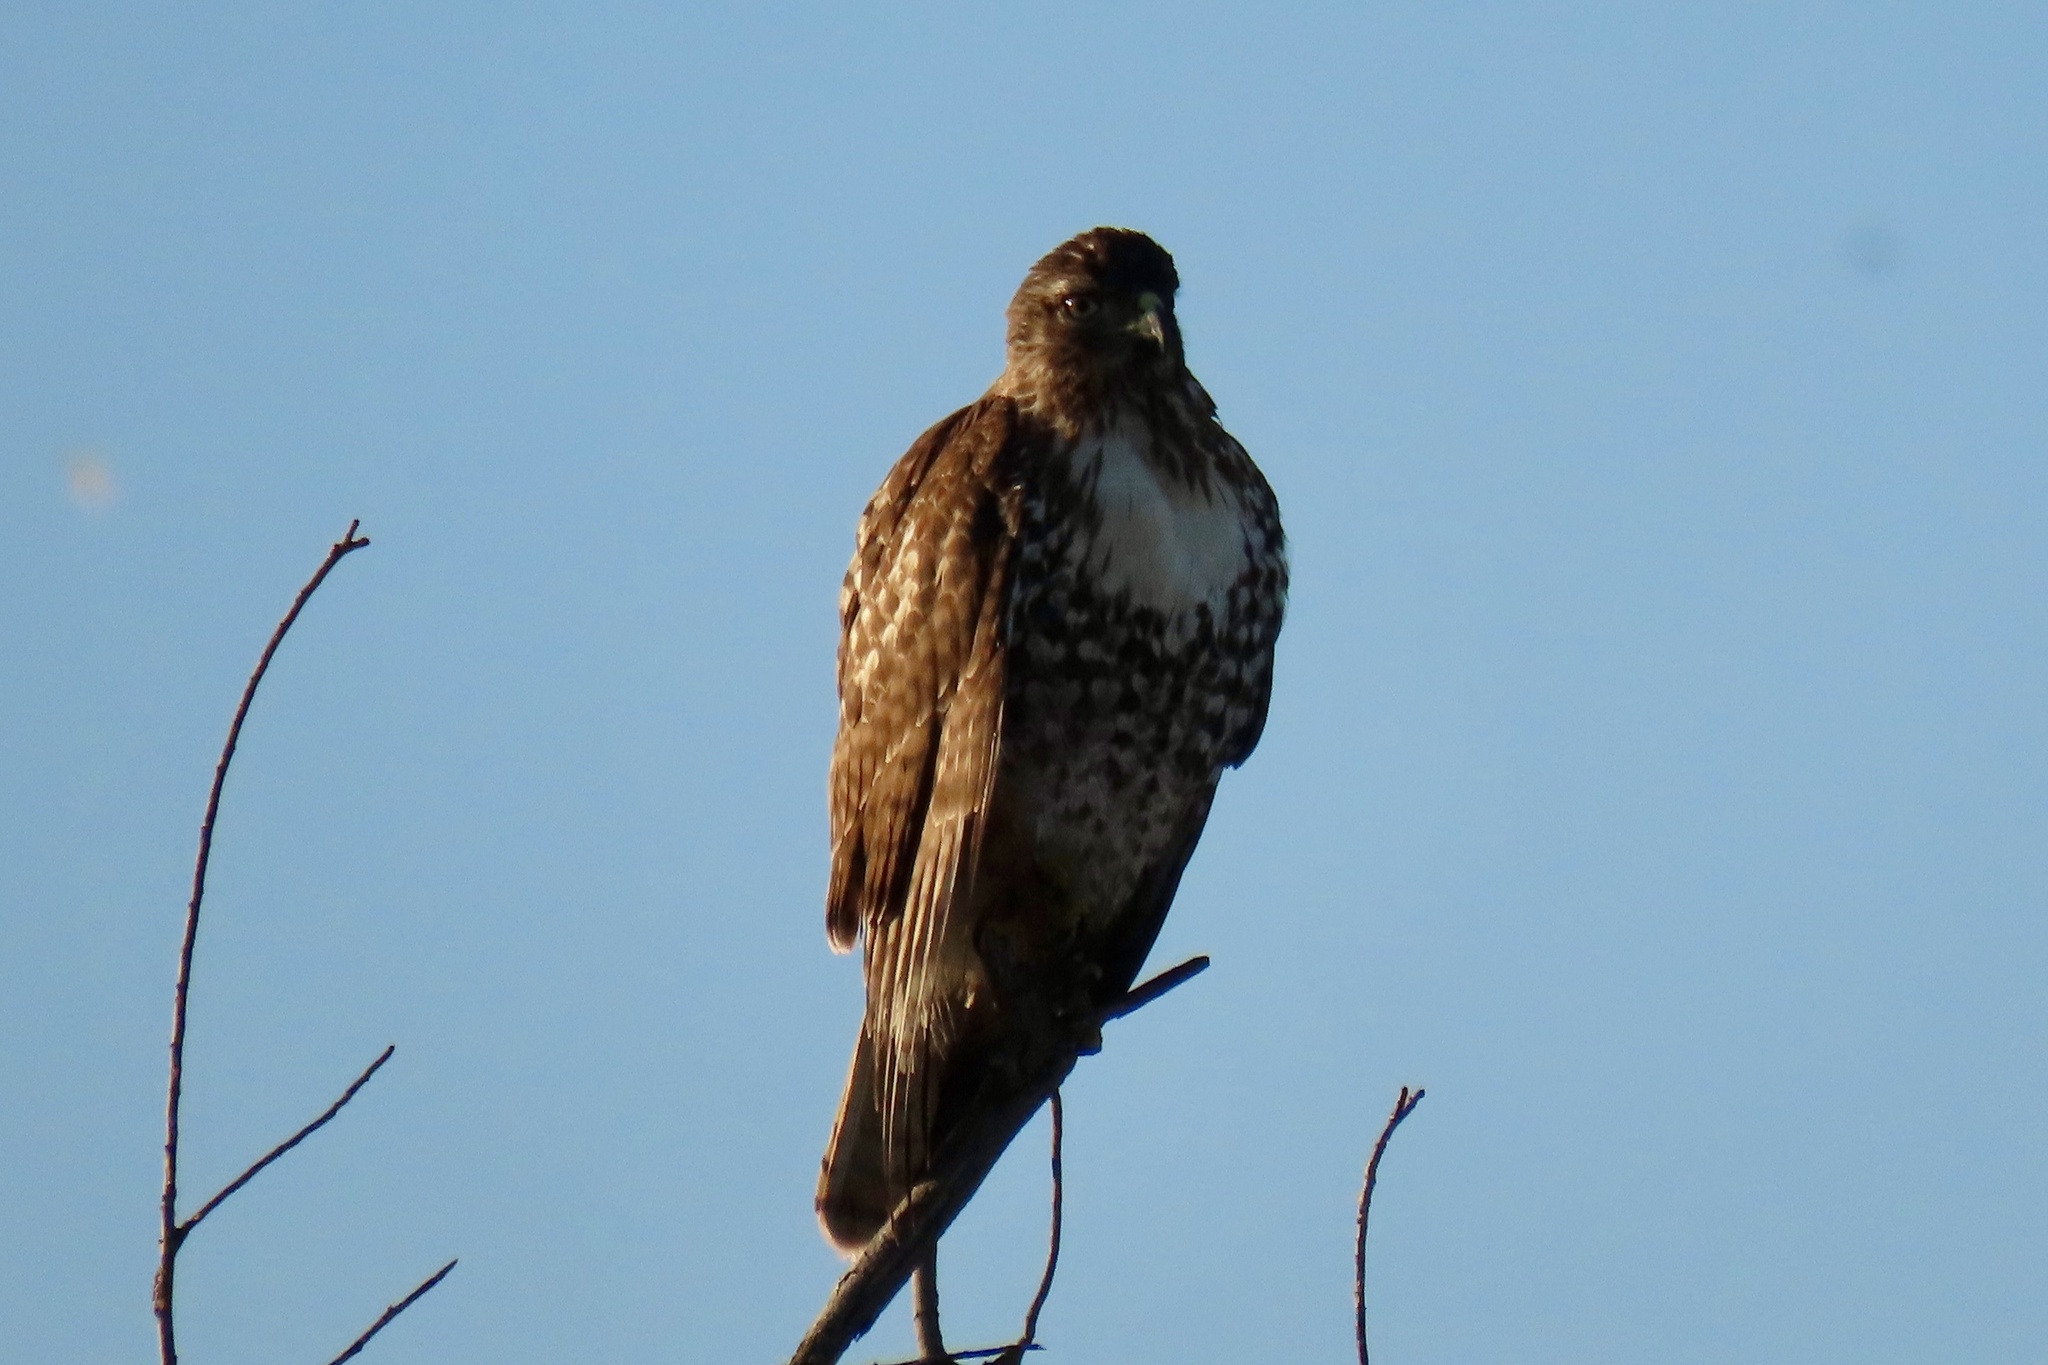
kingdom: Animalia
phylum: Chordata
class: Aves
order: Accipitriformes
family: Accipitridae
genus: Buteo
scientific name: Buteo jamaicensis
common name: Red-tailed hawk
